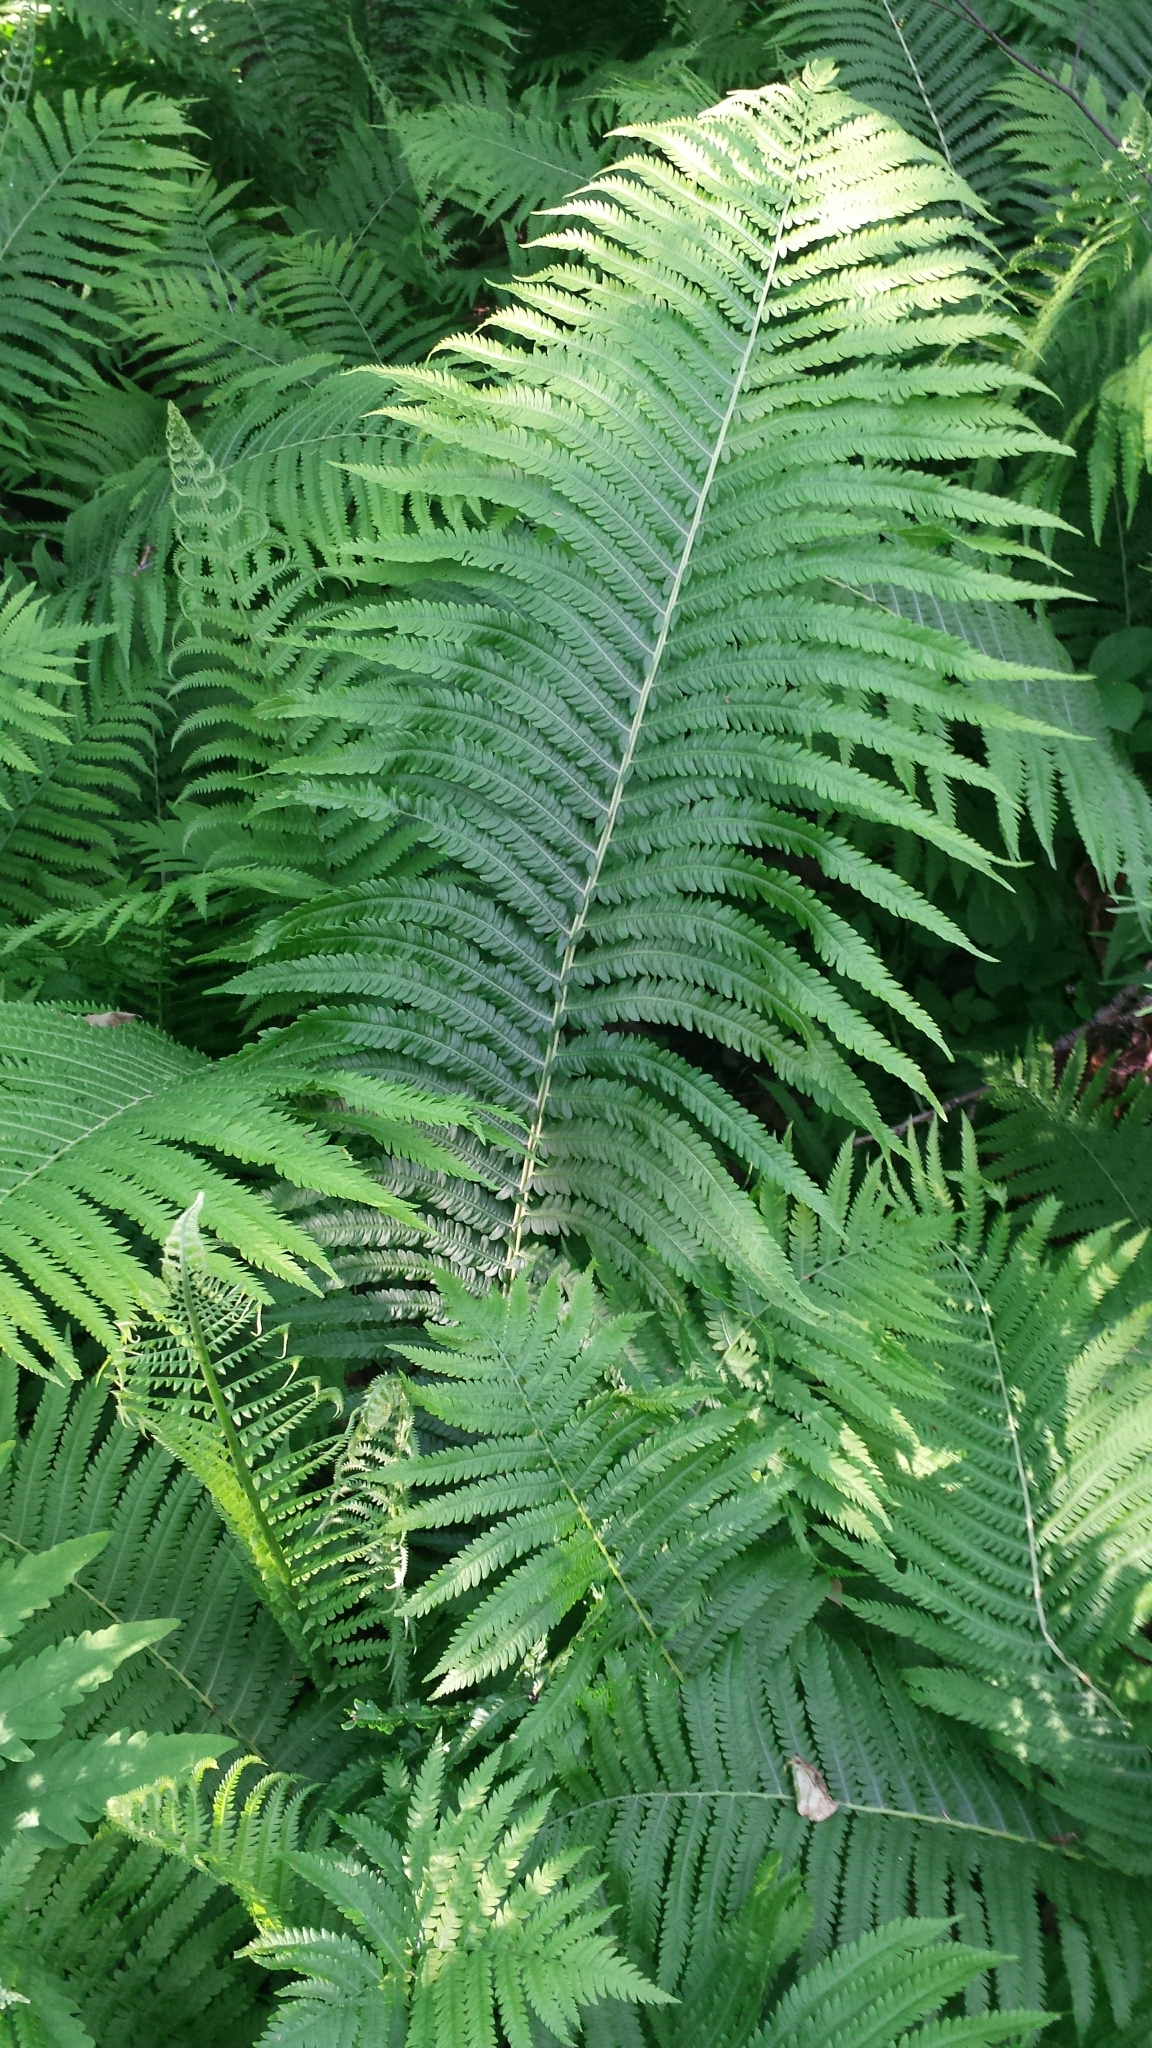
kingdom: Plantae
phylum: Tracheophyta
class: Polypodiopsida
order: Polypodiales
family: Onocleaceae
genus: Matteuccia
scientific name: Matteuccia struthiopteris
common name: Ostrich fern
